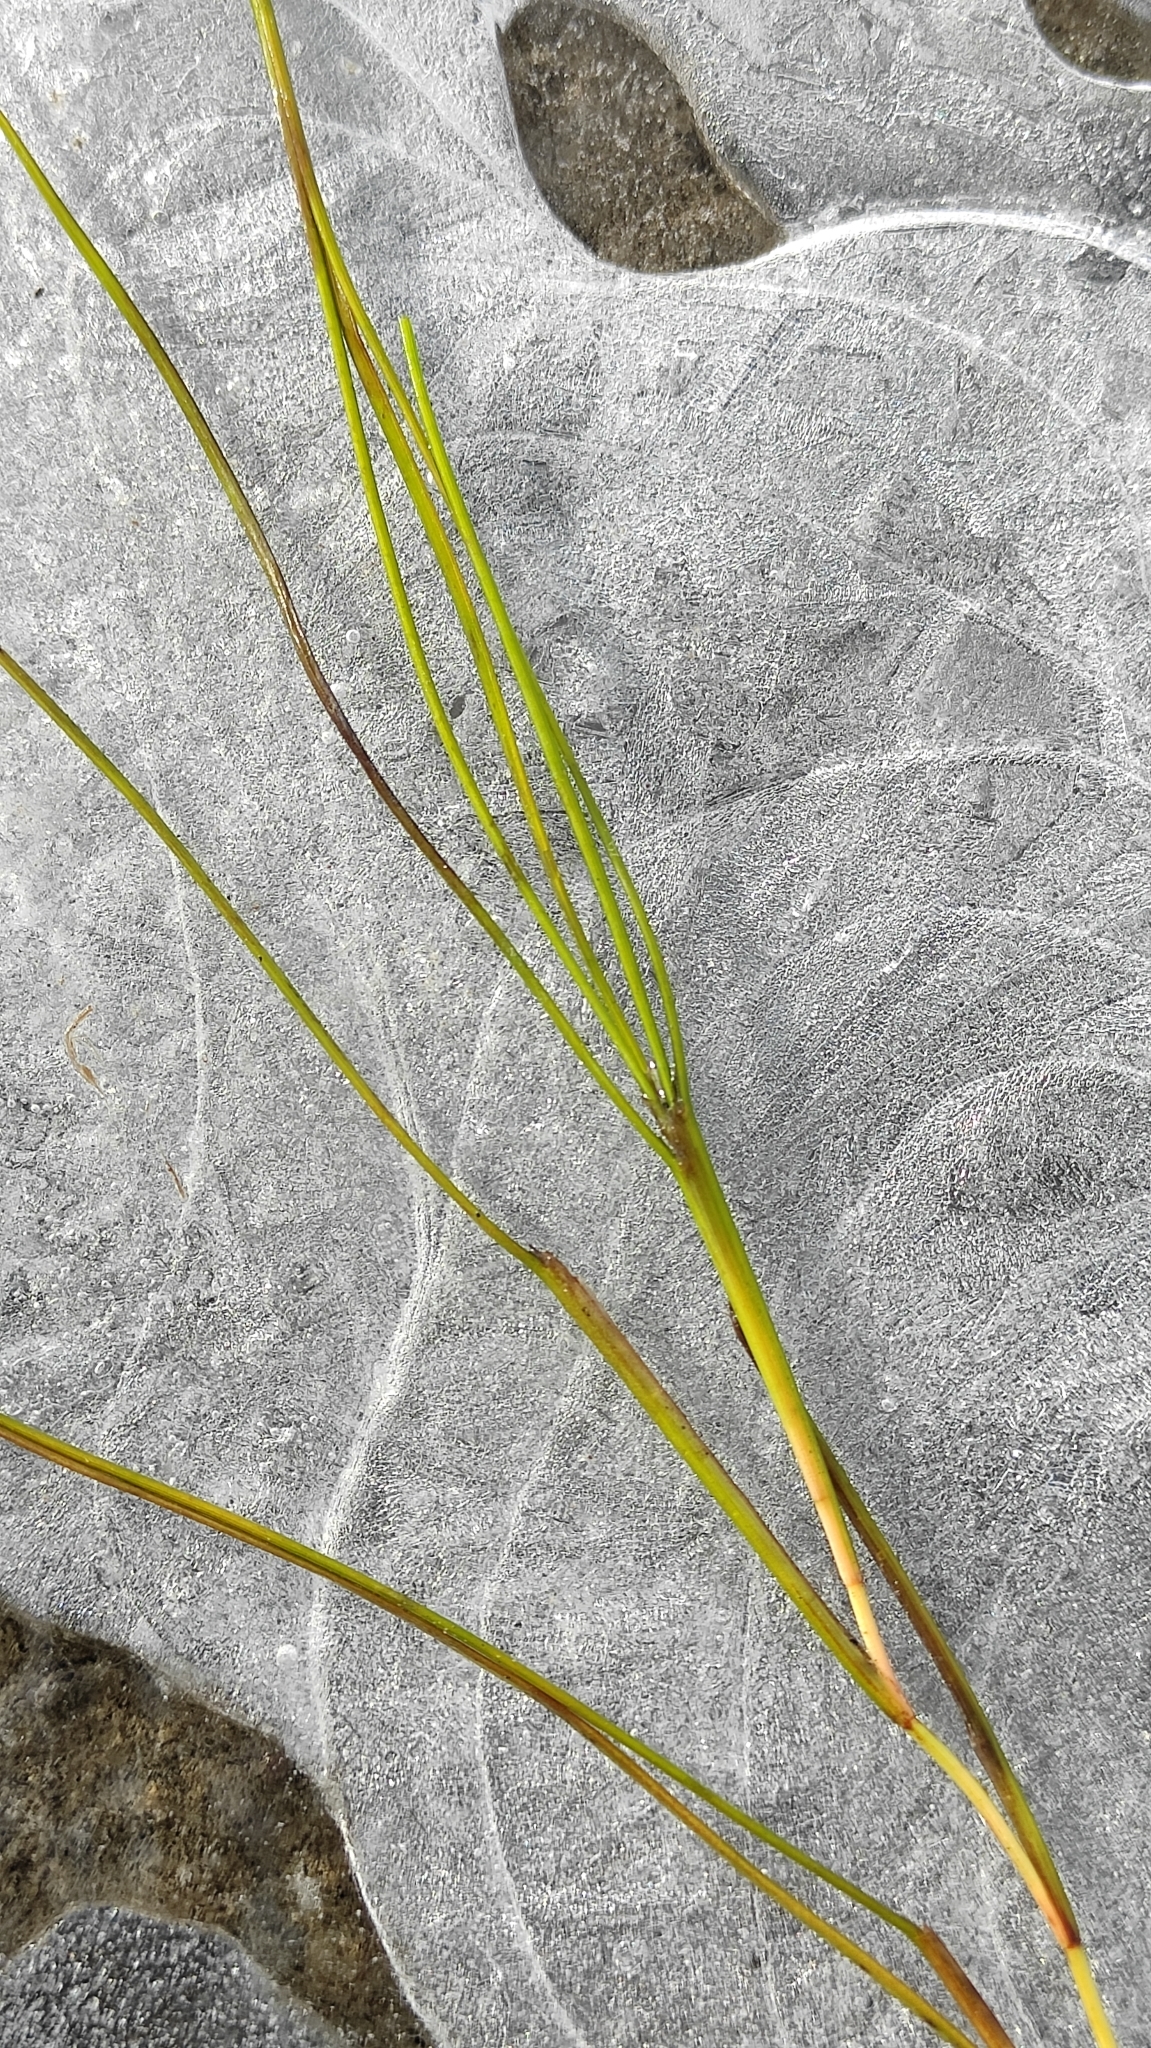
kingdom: Plantae
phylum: Tracheophyta
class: Liliopsida
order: Alismatales
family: Potamogetonaceae
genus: Stuckenia
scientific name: Stuckenia pectinata
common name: Sago pondweed
